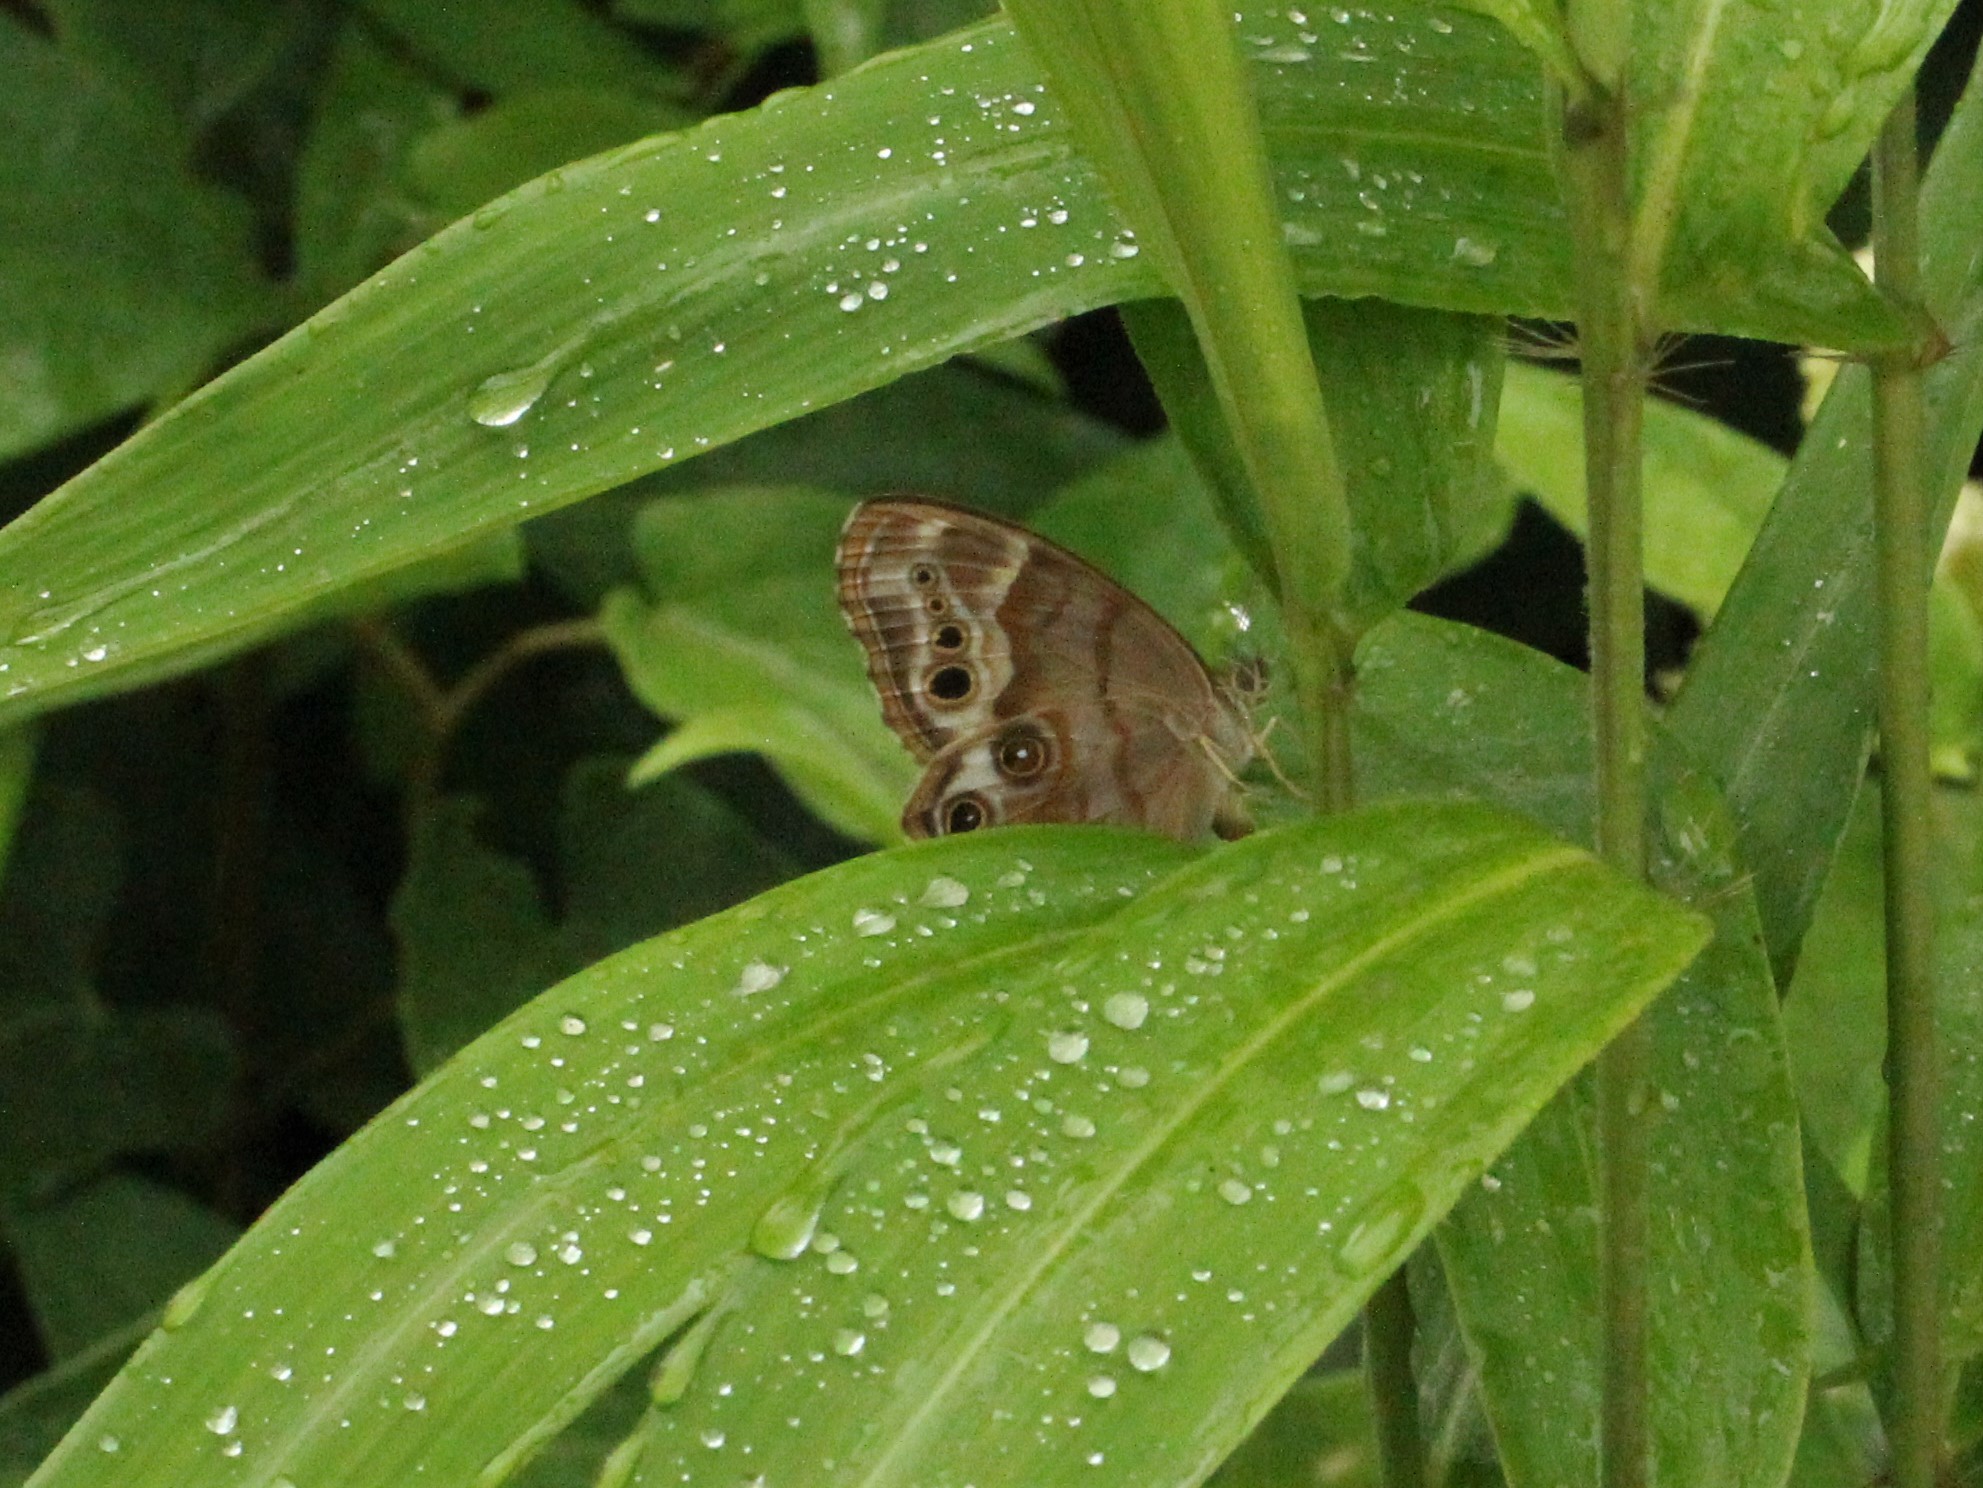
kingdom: Animalia
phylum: Arthropoda
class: Insecta
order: Lepidoptera
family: Nymphalidae
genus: Enodia
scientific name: Enodia portlandia
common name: Southern pearly-eye
